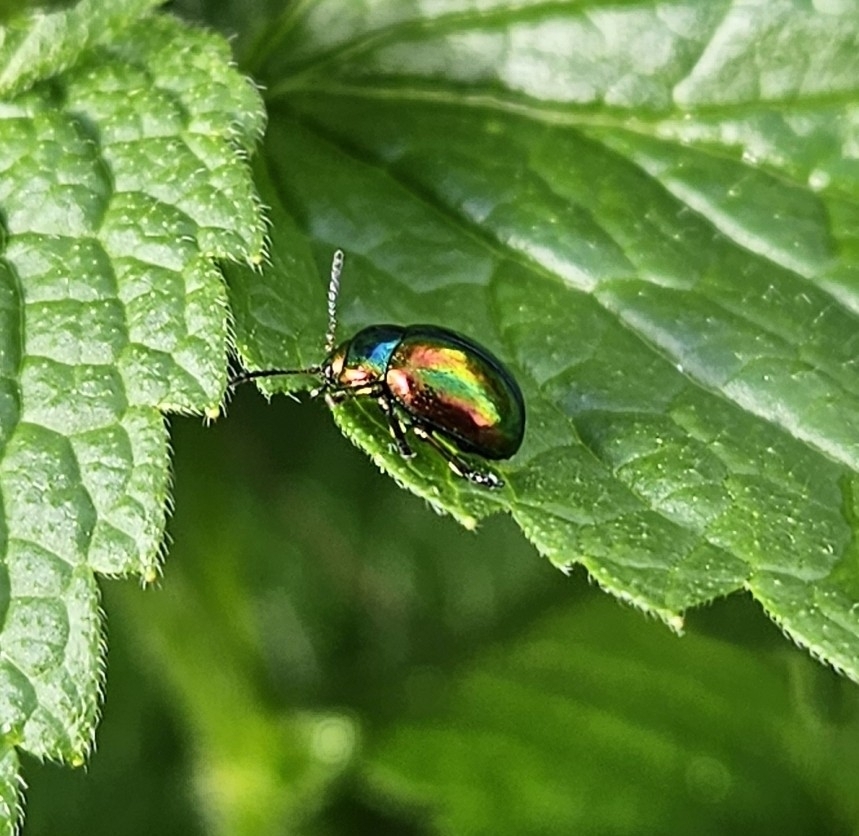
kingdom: Animalia
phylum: Arthropoda
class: Insecta
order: Coleoptera
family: Chrysomelidae
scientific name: Chrysomelidae
